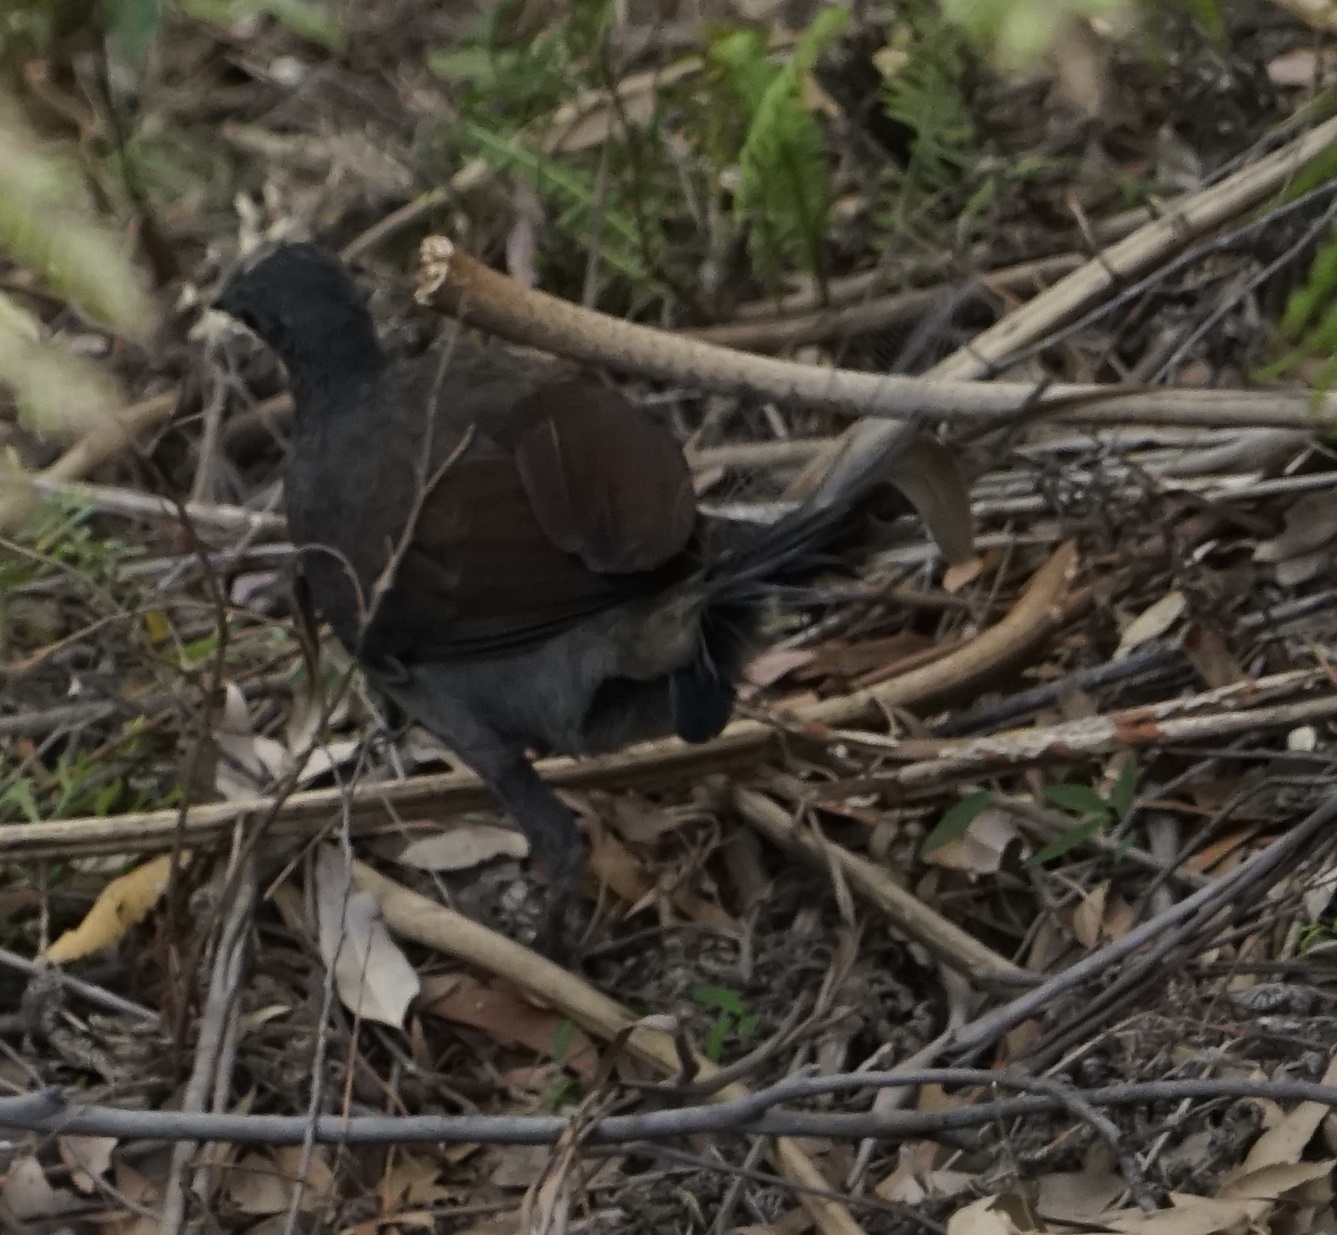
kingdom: Animalia
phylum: Chordata
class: Aves
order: Passeriformes
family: Menuridae
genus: Menura
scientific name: Menura novaehollandiae
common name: Superb lyrebird
